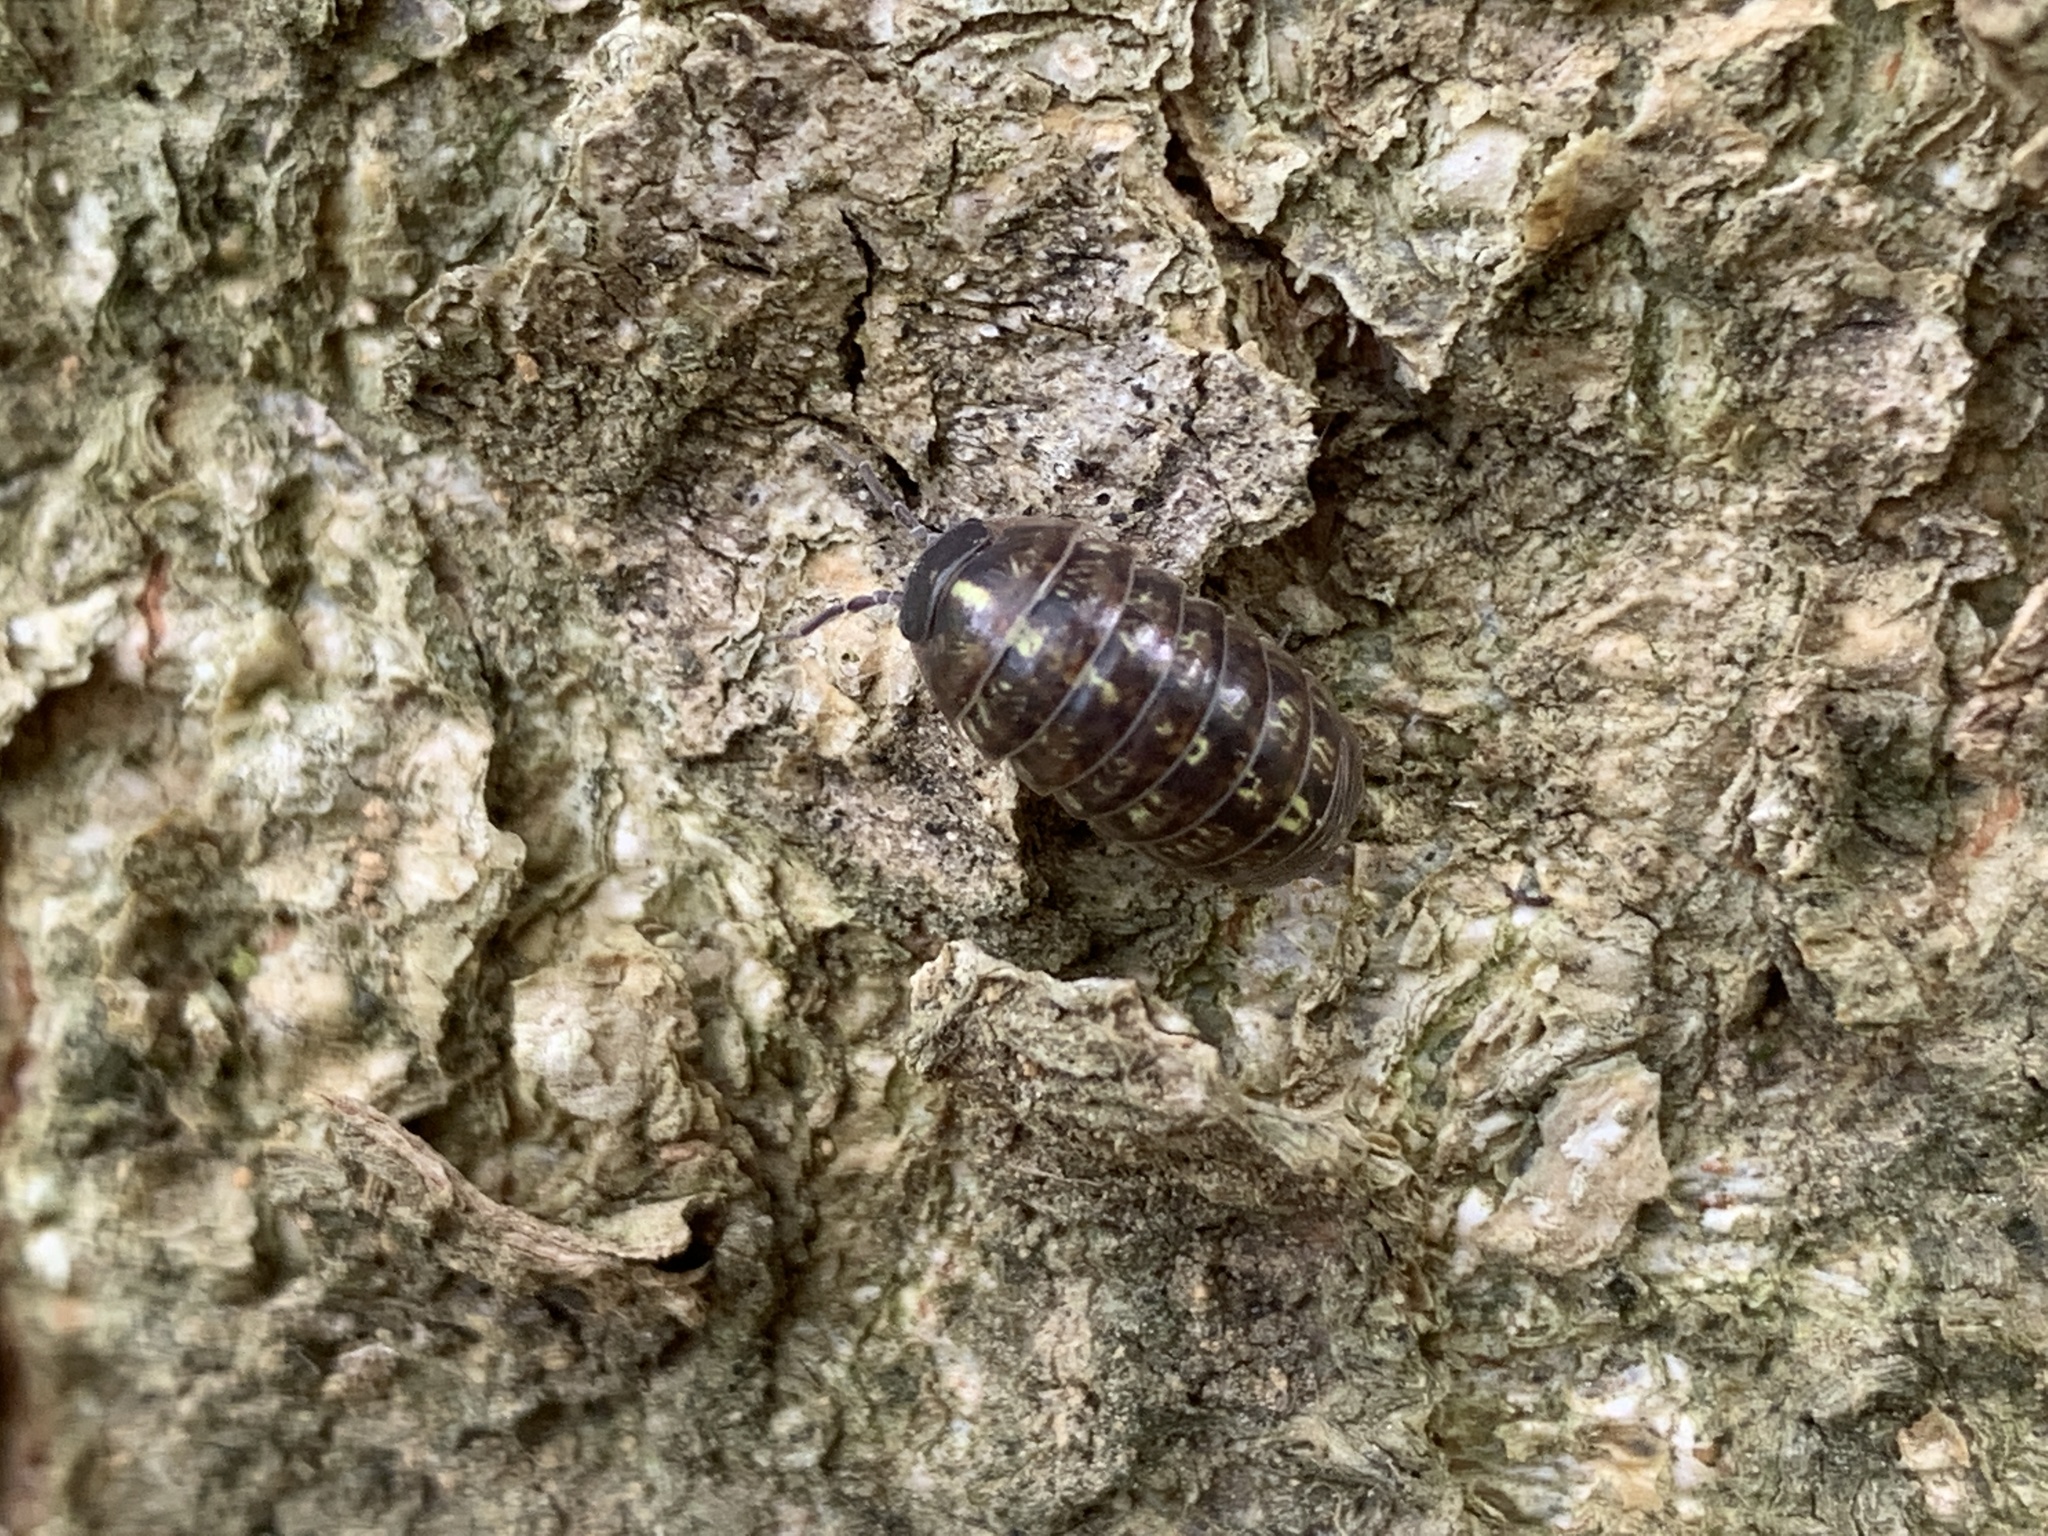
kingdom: Animalia
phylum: Arthropoda
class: Malacostraca
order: Isopoda
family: Armadillidiidae
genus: Armadillidium
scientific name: Armadillidium vulgare
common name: Common pill woodlouse
